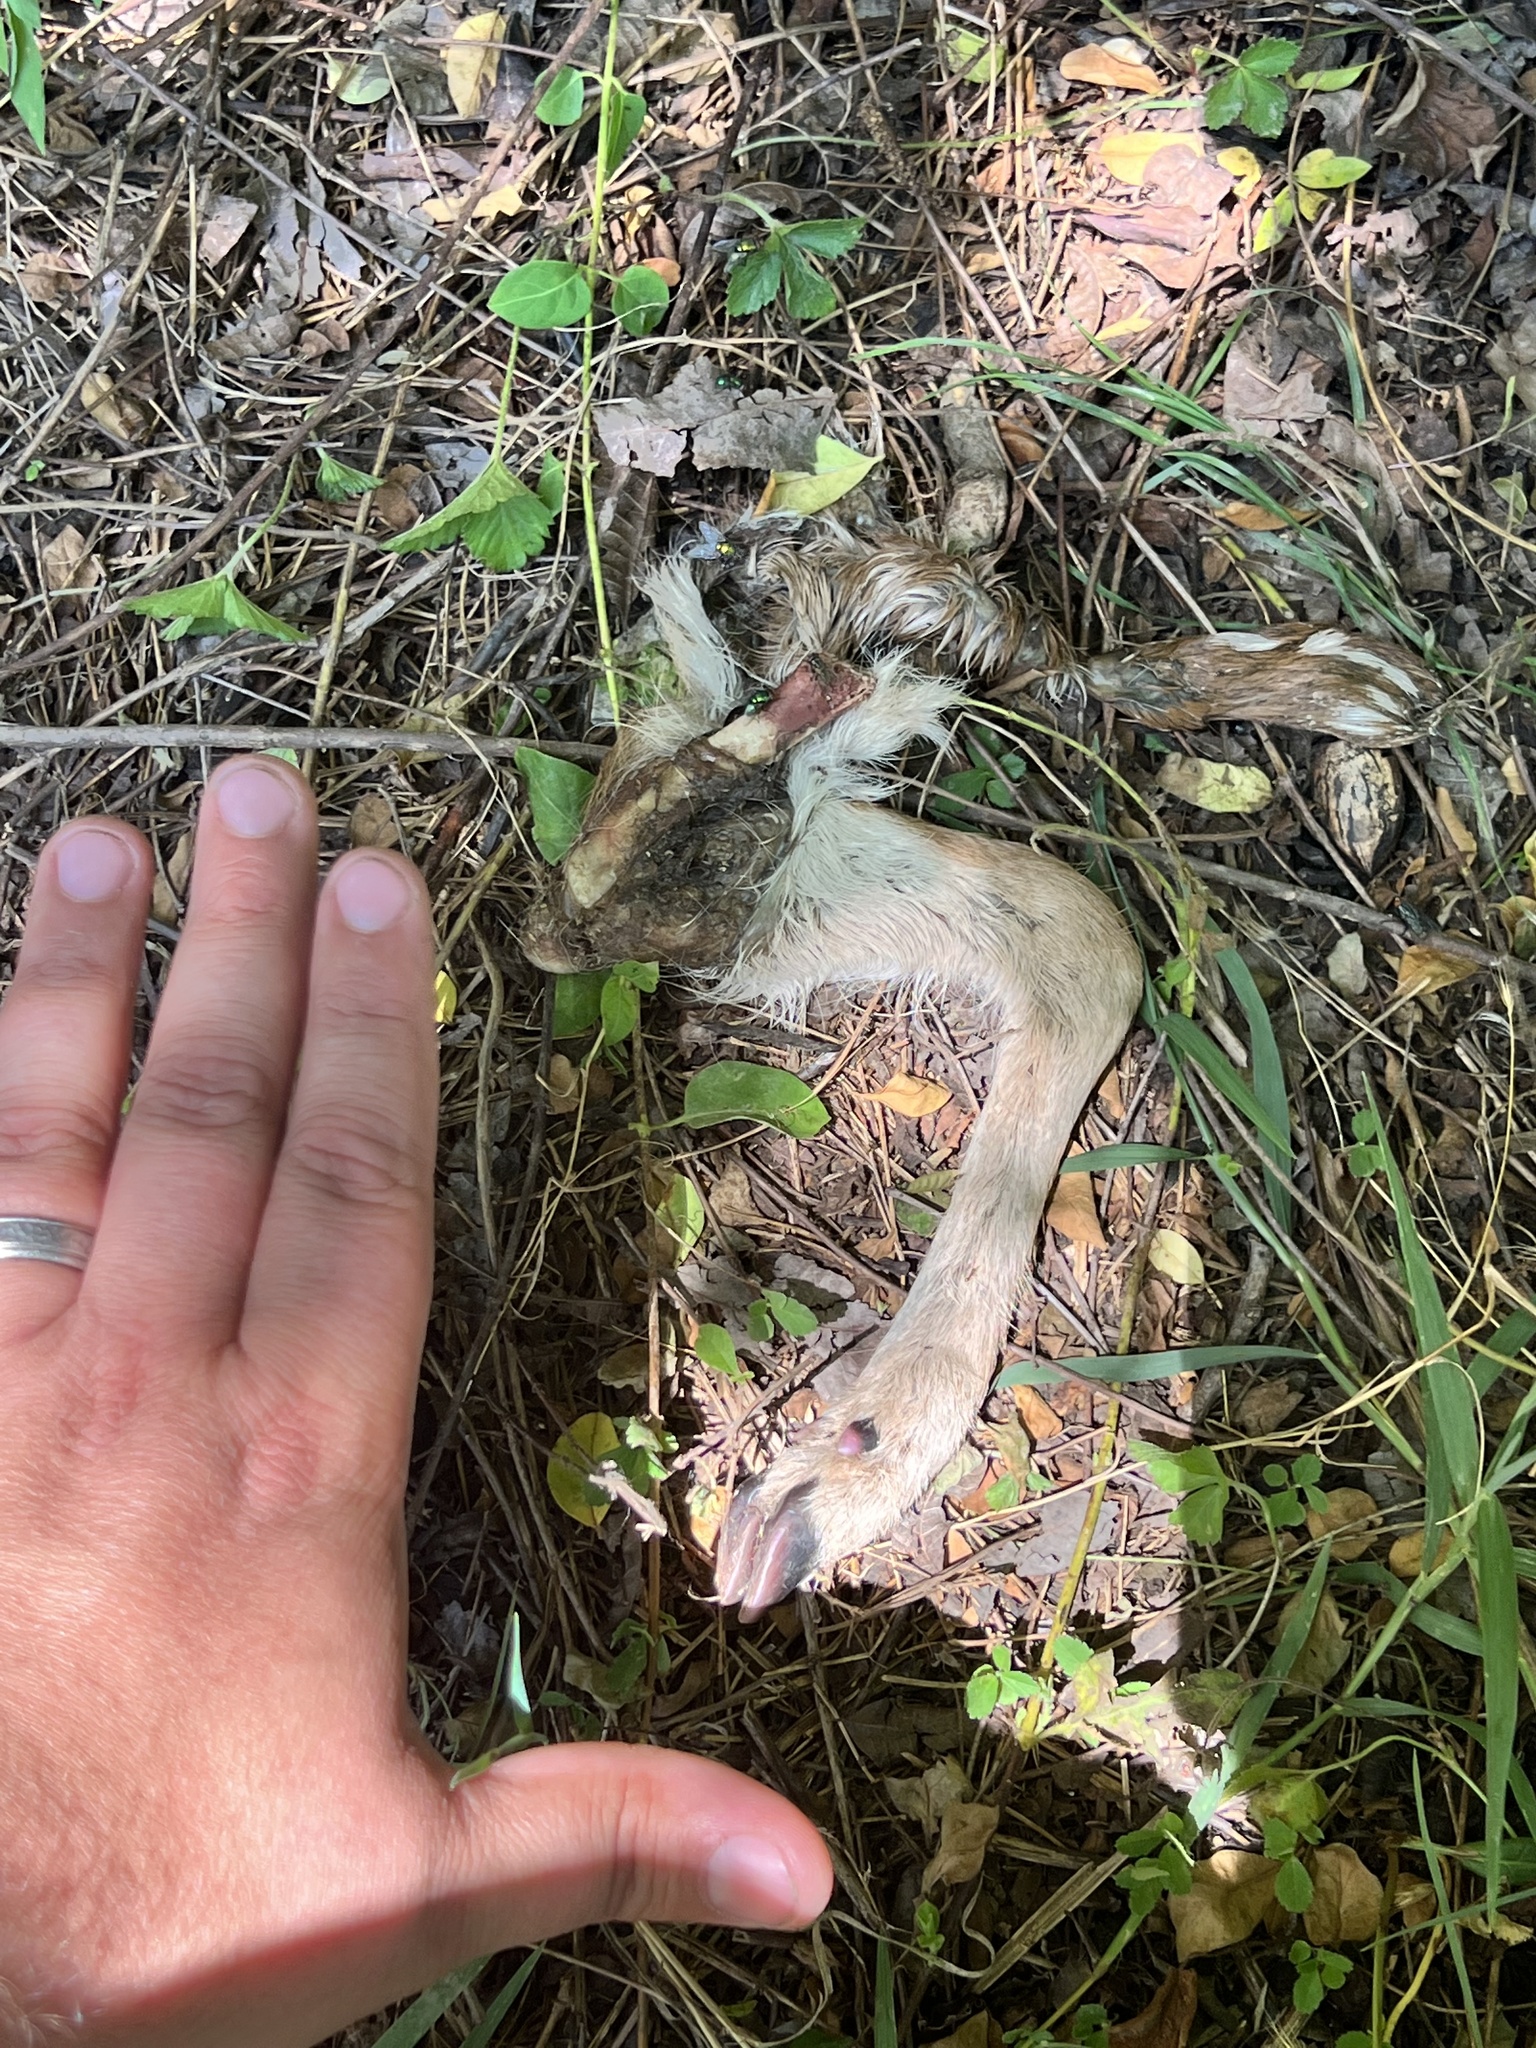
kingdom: Animalia
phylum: Chordata
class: Mammalia
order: Artiodactyla
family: Cervidae
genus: Odocoileus
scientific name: Odocoileus virginianus
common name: White-tailed deer
